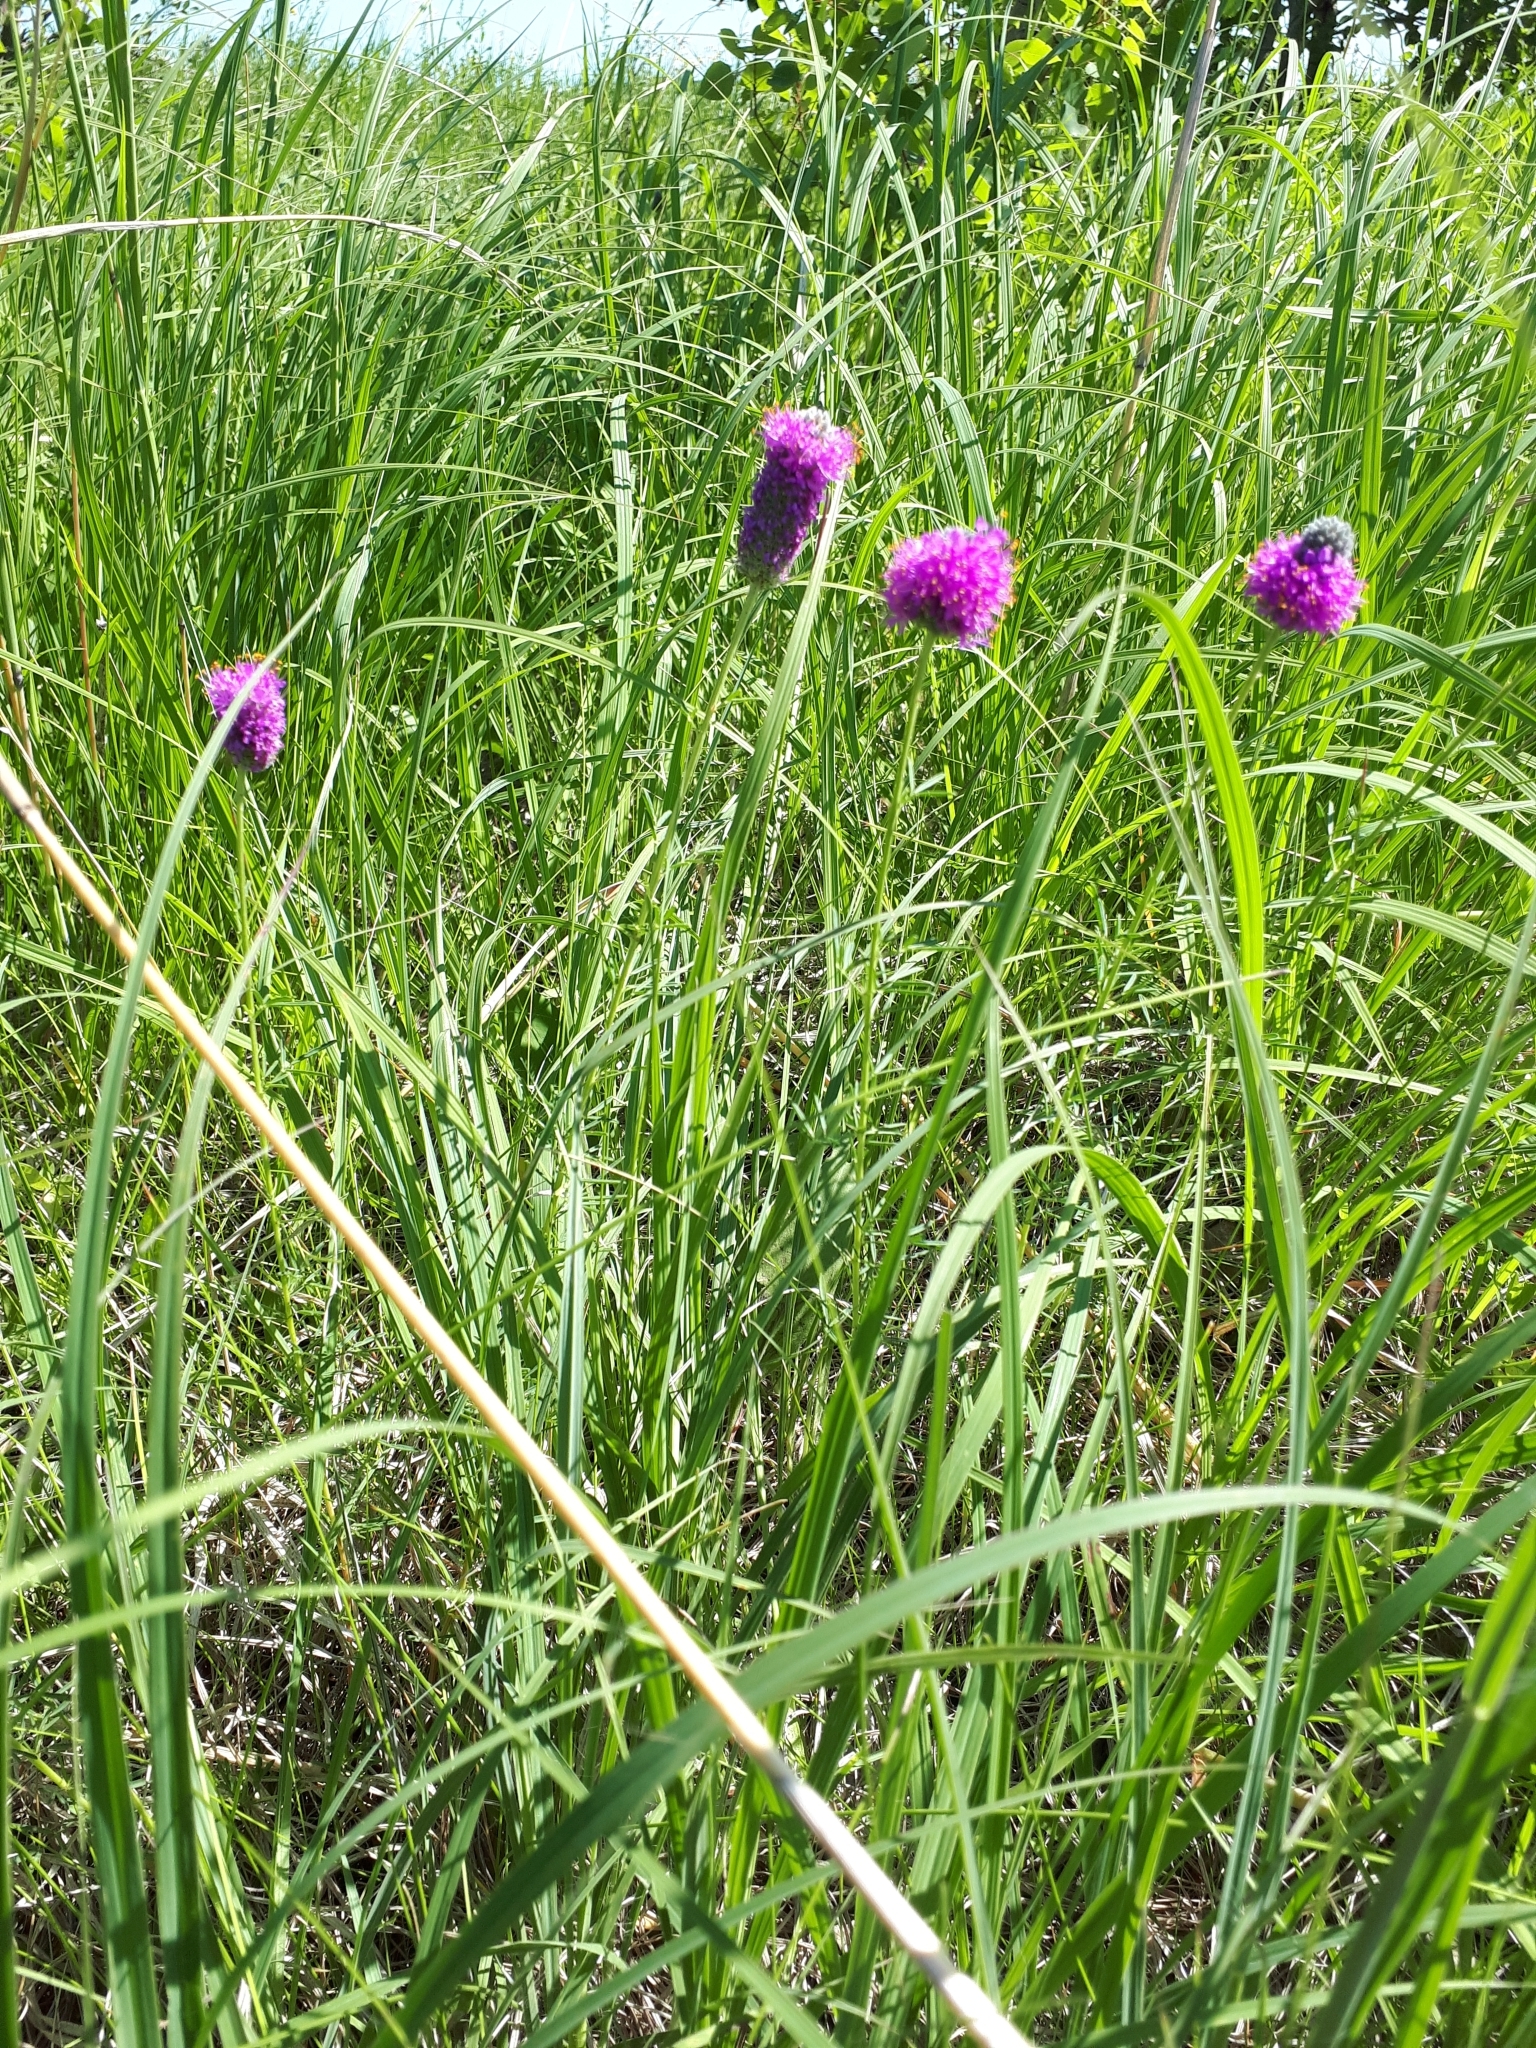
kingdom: Plantae
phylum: Tracheophyta
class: Magnoliopsida
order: Fabales
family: Fabaceae
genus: Dalea
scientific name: Dalea purpurea
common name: Purple prairie-clover
